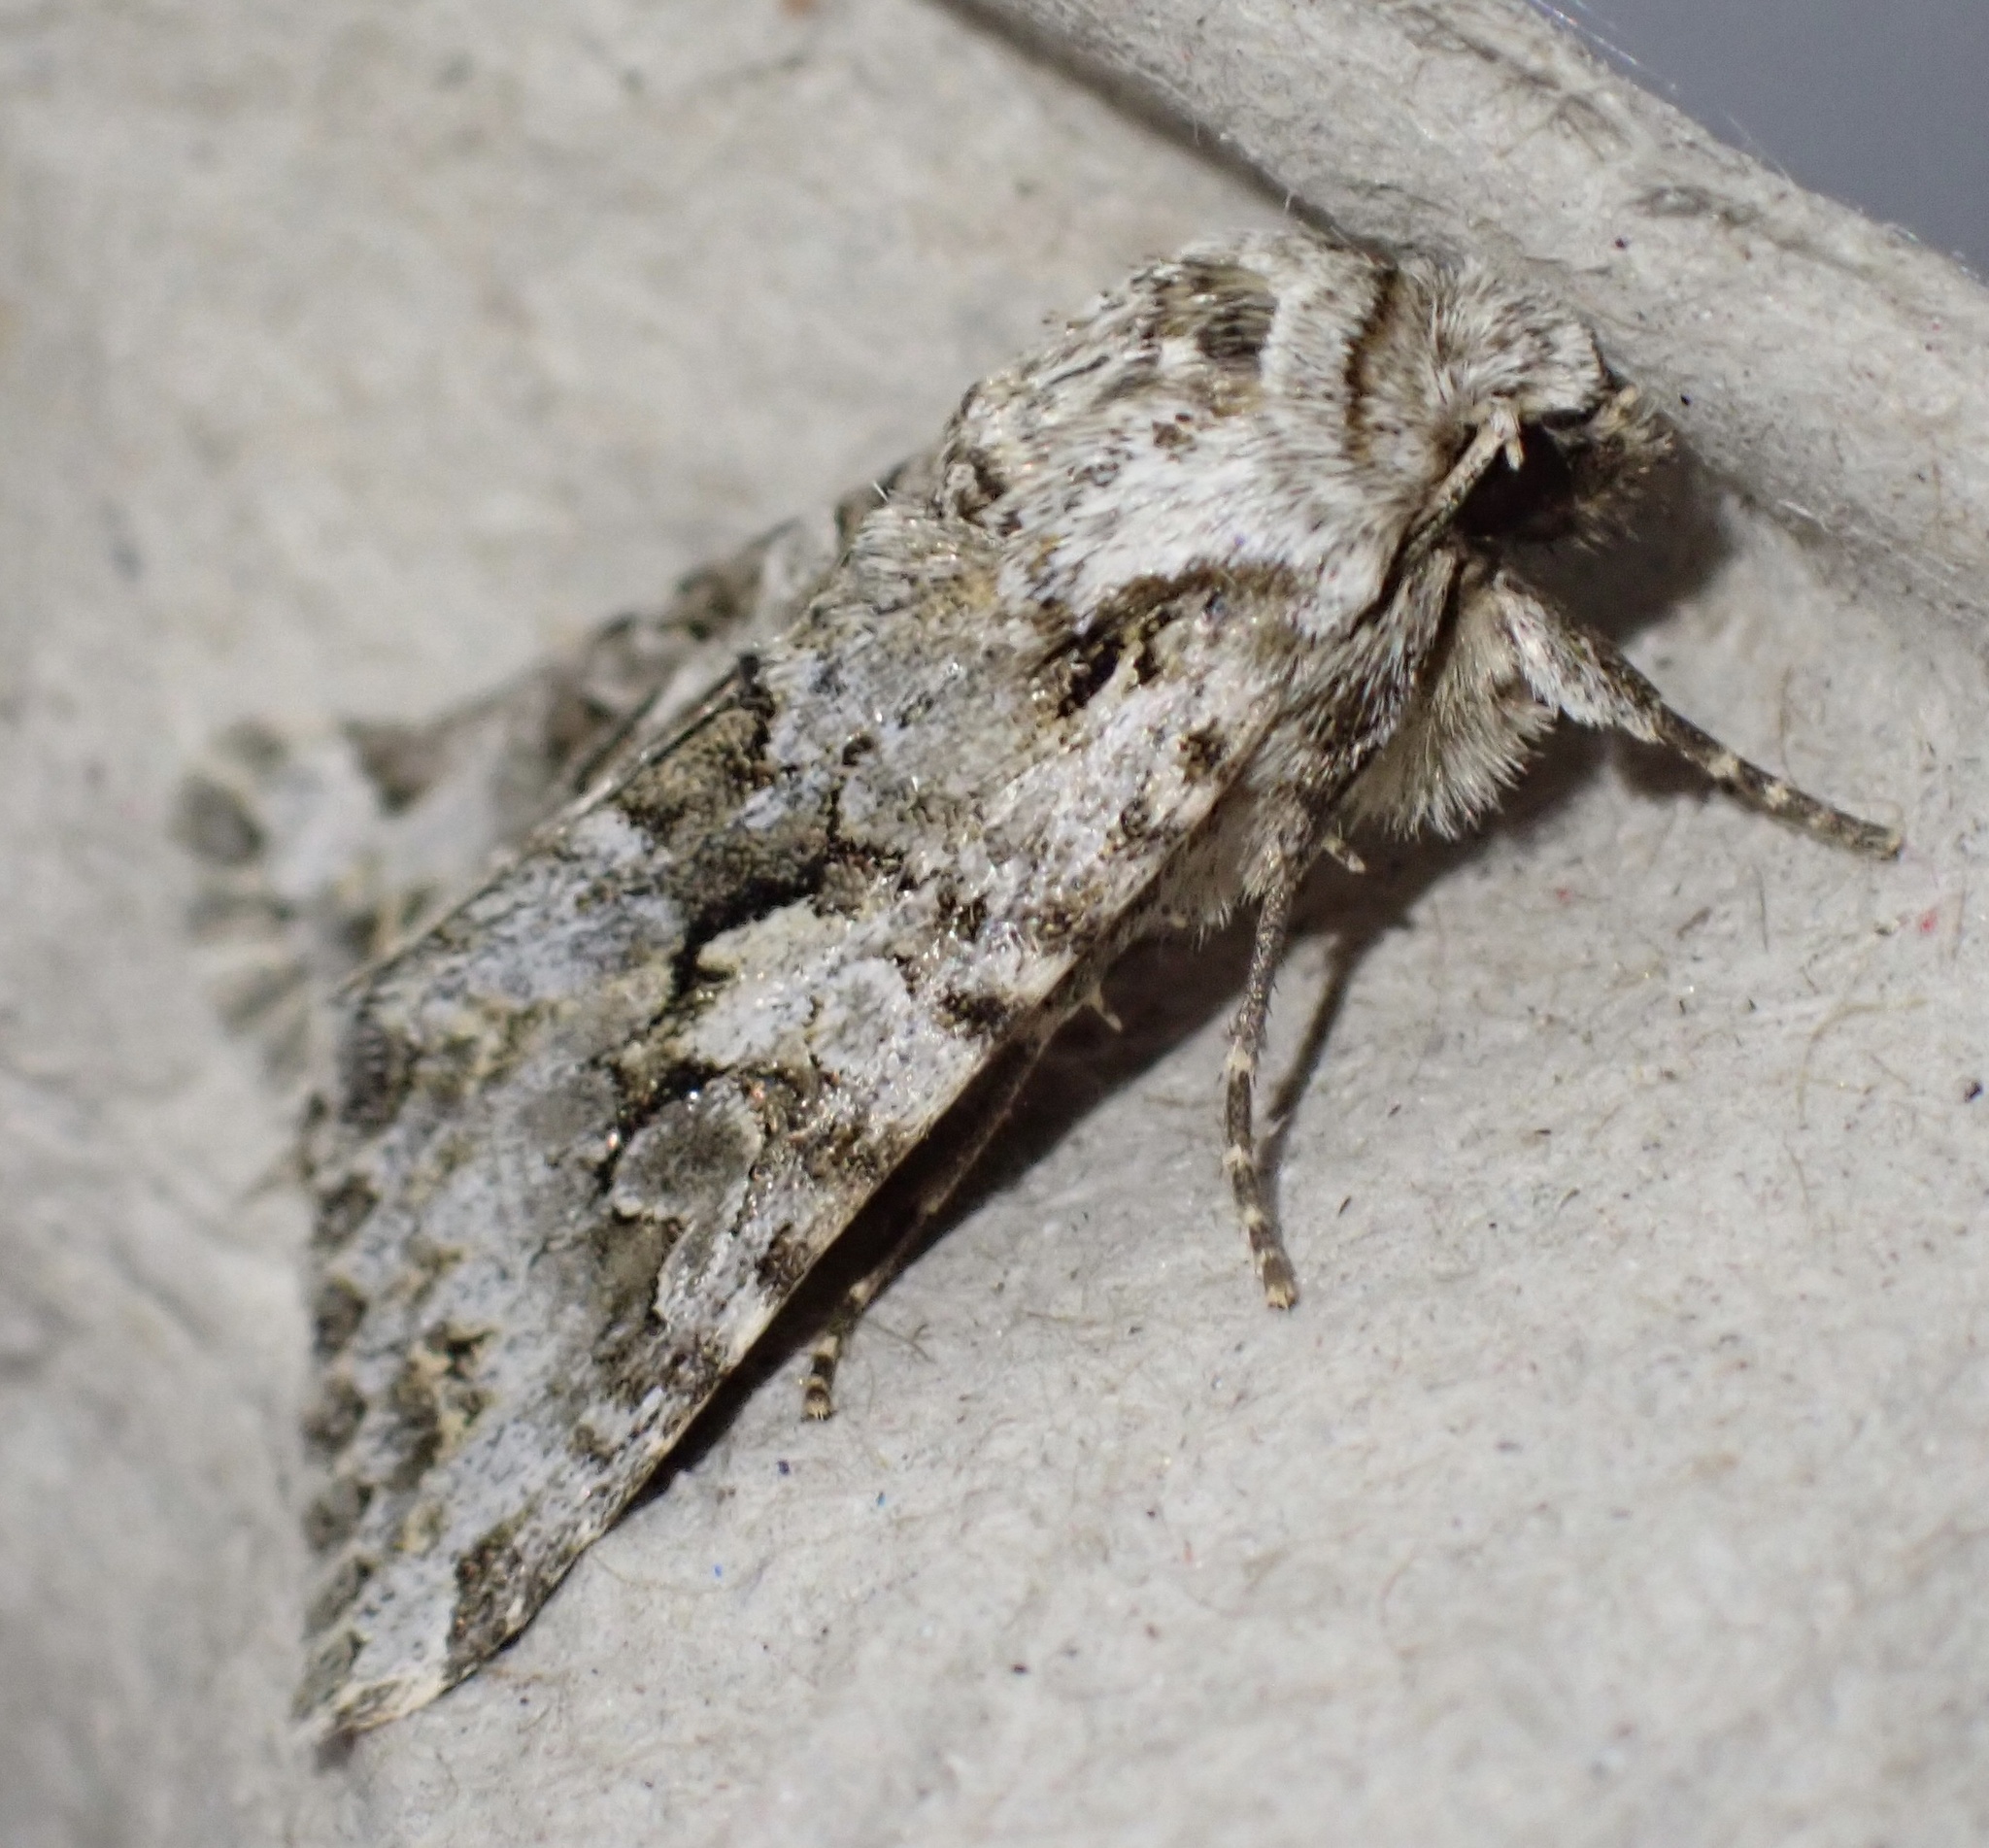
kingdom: Animalia
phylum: Arthropoda
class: Insecta
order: Lepidoptera
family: Noctuidae
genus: Hada
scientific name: Hada plebeja
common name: Shears
